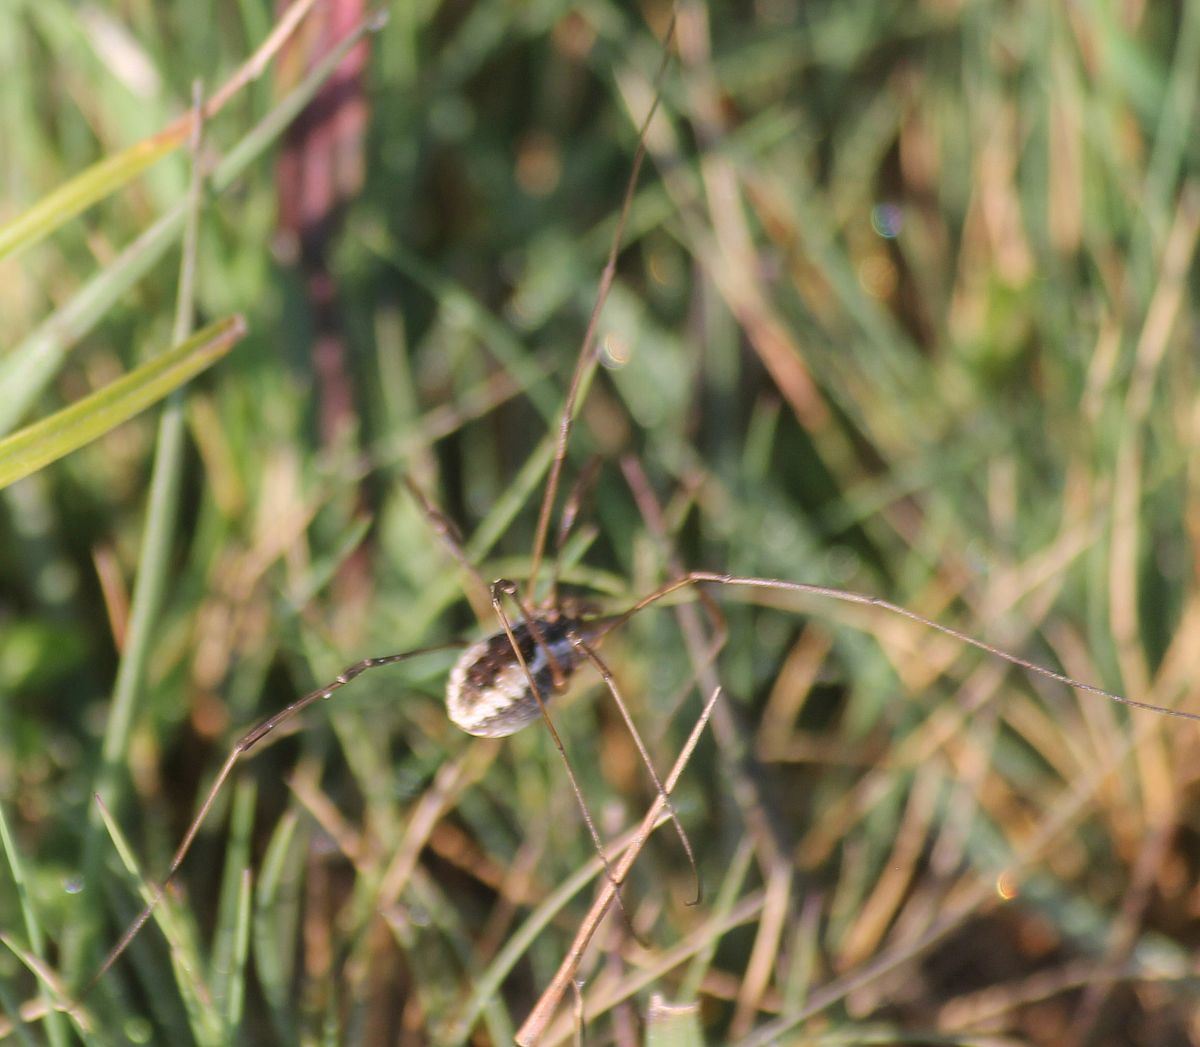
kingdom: Animalia
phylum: Arthropoda
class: Arachnida
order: Opiliones
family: Phalangiidae
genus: Phalangium
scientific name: Phalangium opilio
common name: Daddy longleg
